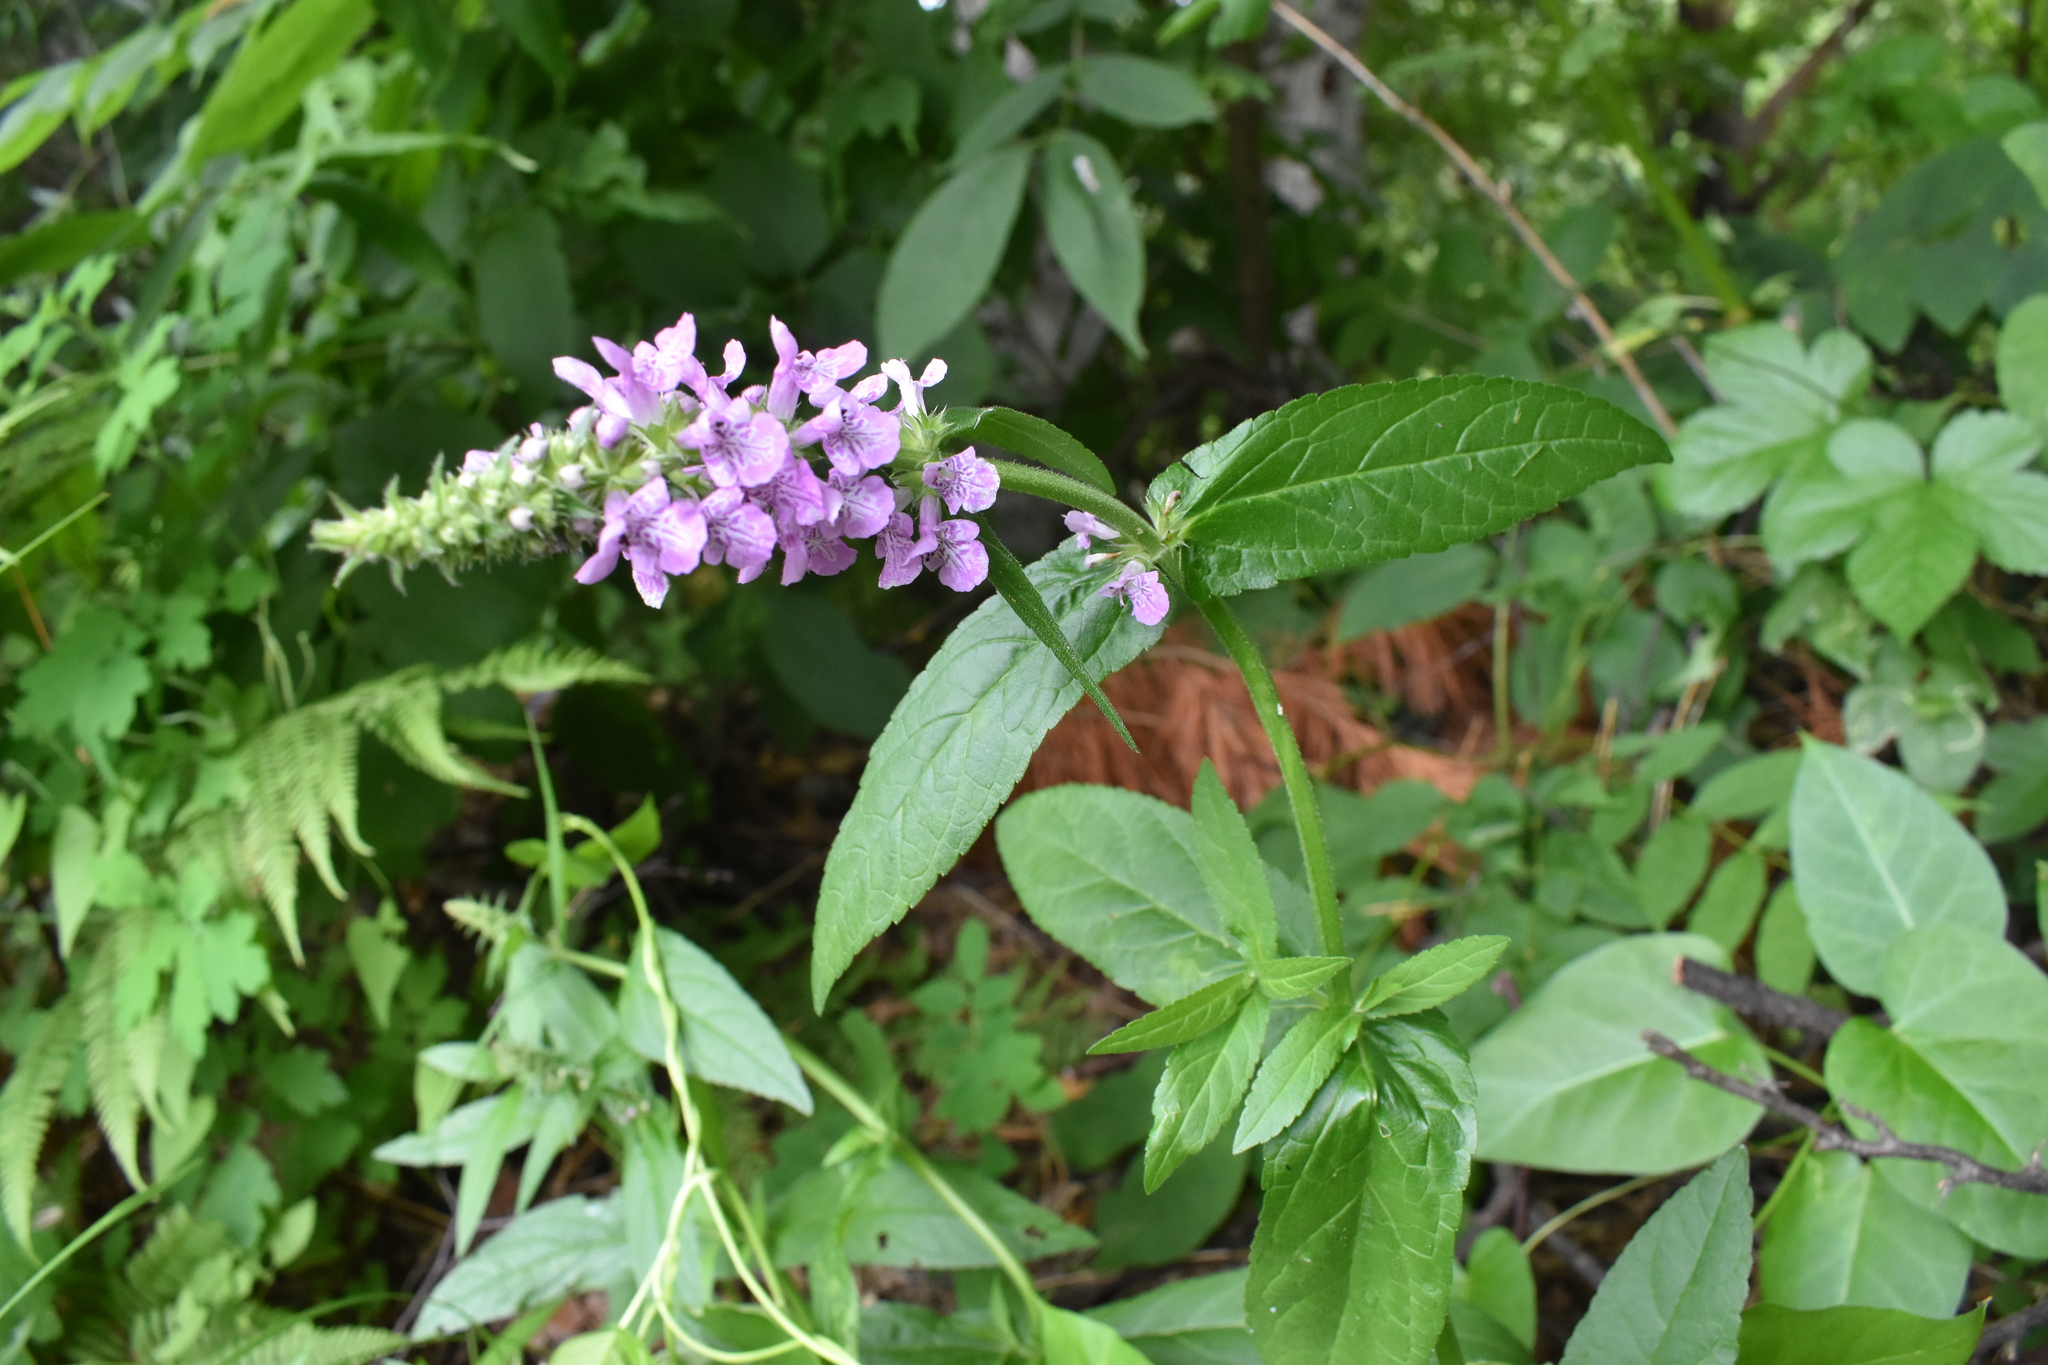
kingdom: Plantae
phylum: Tracheophyta
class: Magnoliopsida
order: Lamiales
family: Lamiaceae
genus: Stachys
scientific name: Stachys palustris
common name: Marsh woundwort
